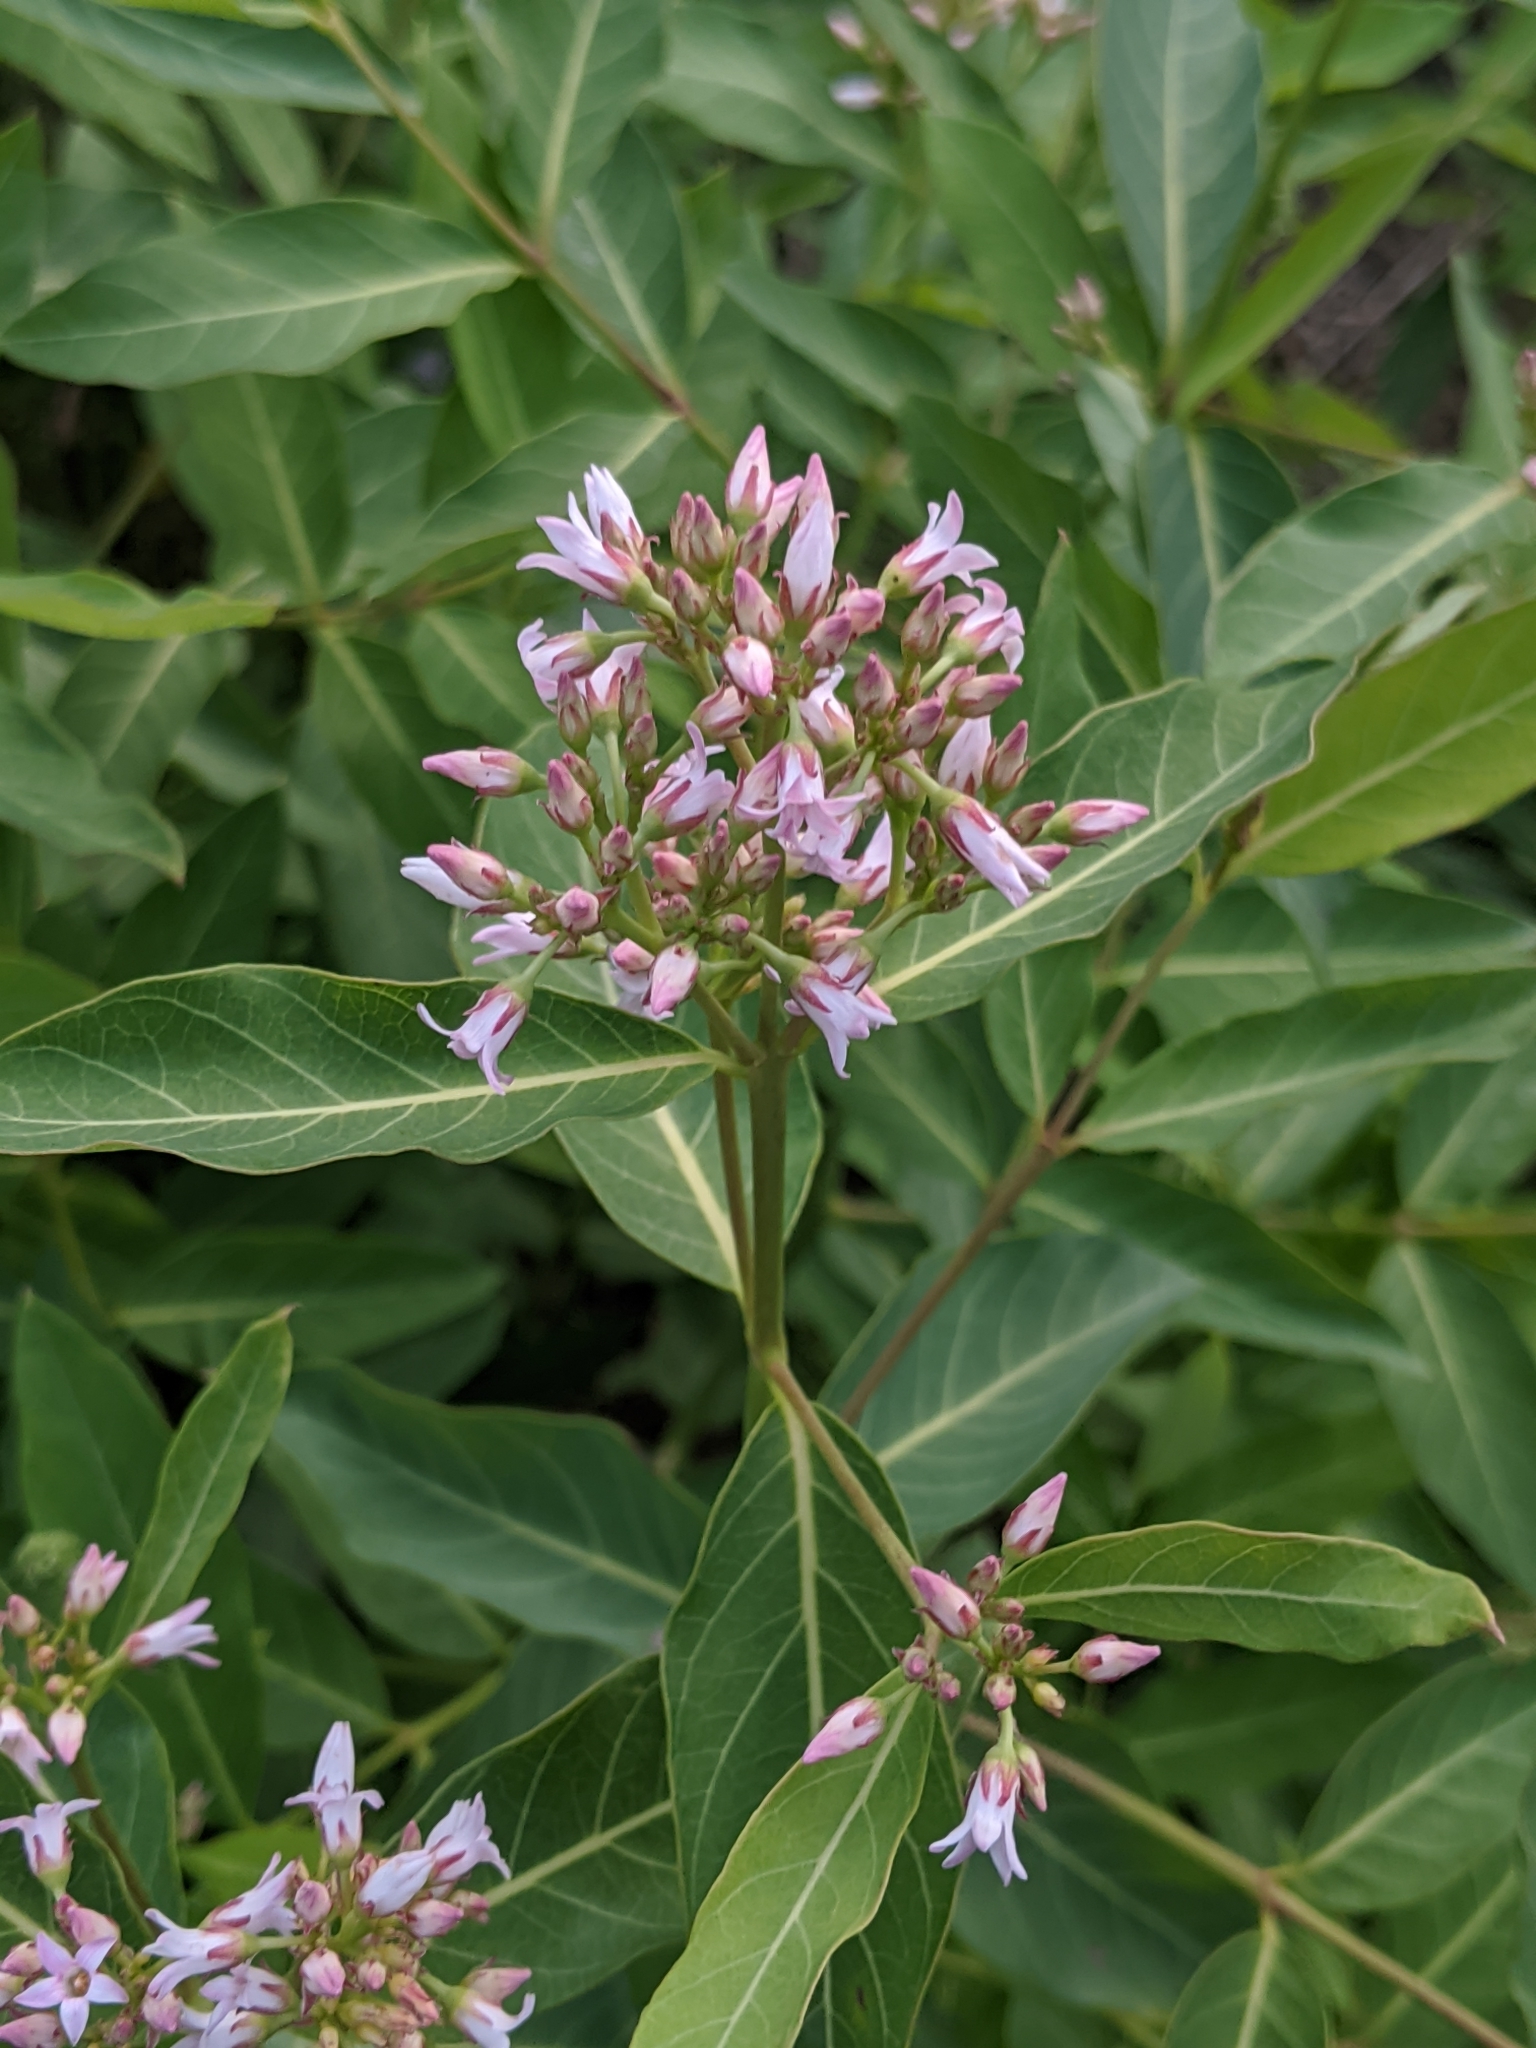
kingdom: Plantae
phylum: Tracheophyta
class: Magnoliopsida
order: Gentianales
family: Apocynaceae
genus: Apocynum
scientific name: Apocynum cannabinum
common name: Hemp dogbane
